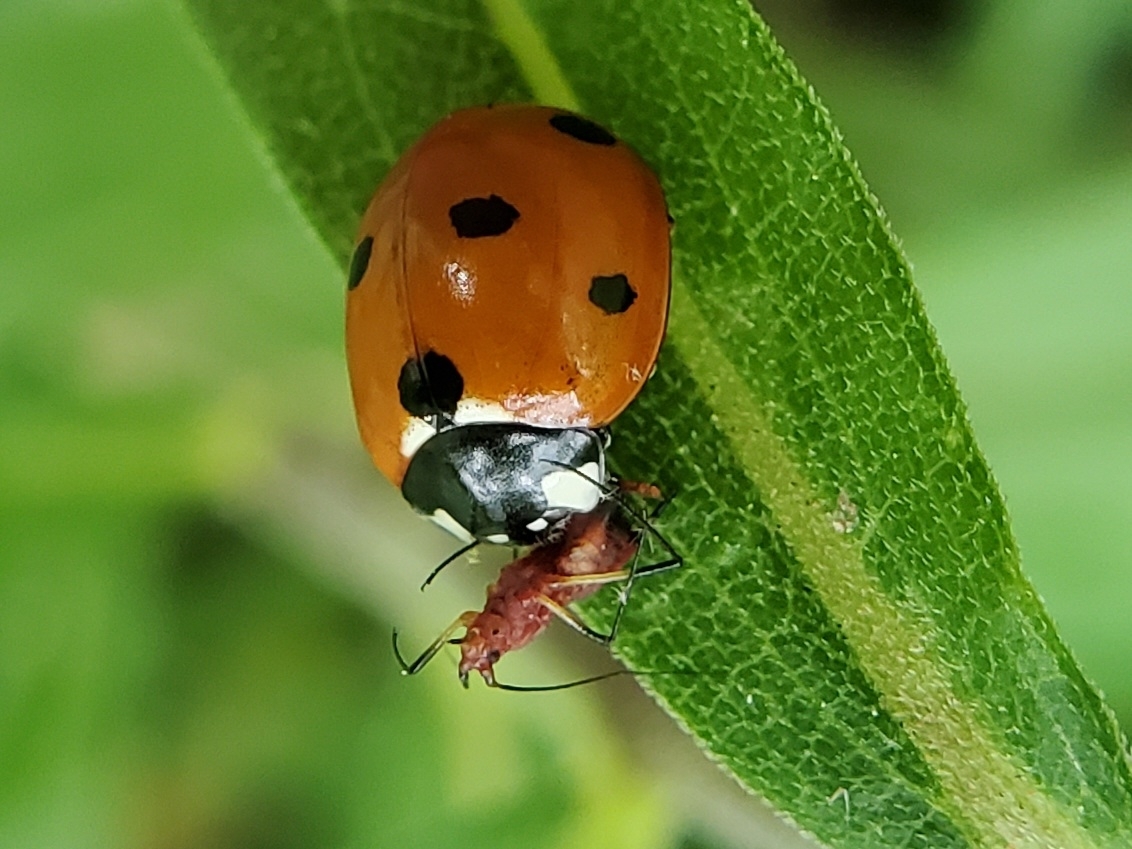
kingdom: Animalia
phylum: Arthropoda
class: Insecta
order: Coleoptera
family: Coccinellidae
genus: Coccinella
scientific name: Coccinella septempunctata
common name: Sevenspotted lady beetle
